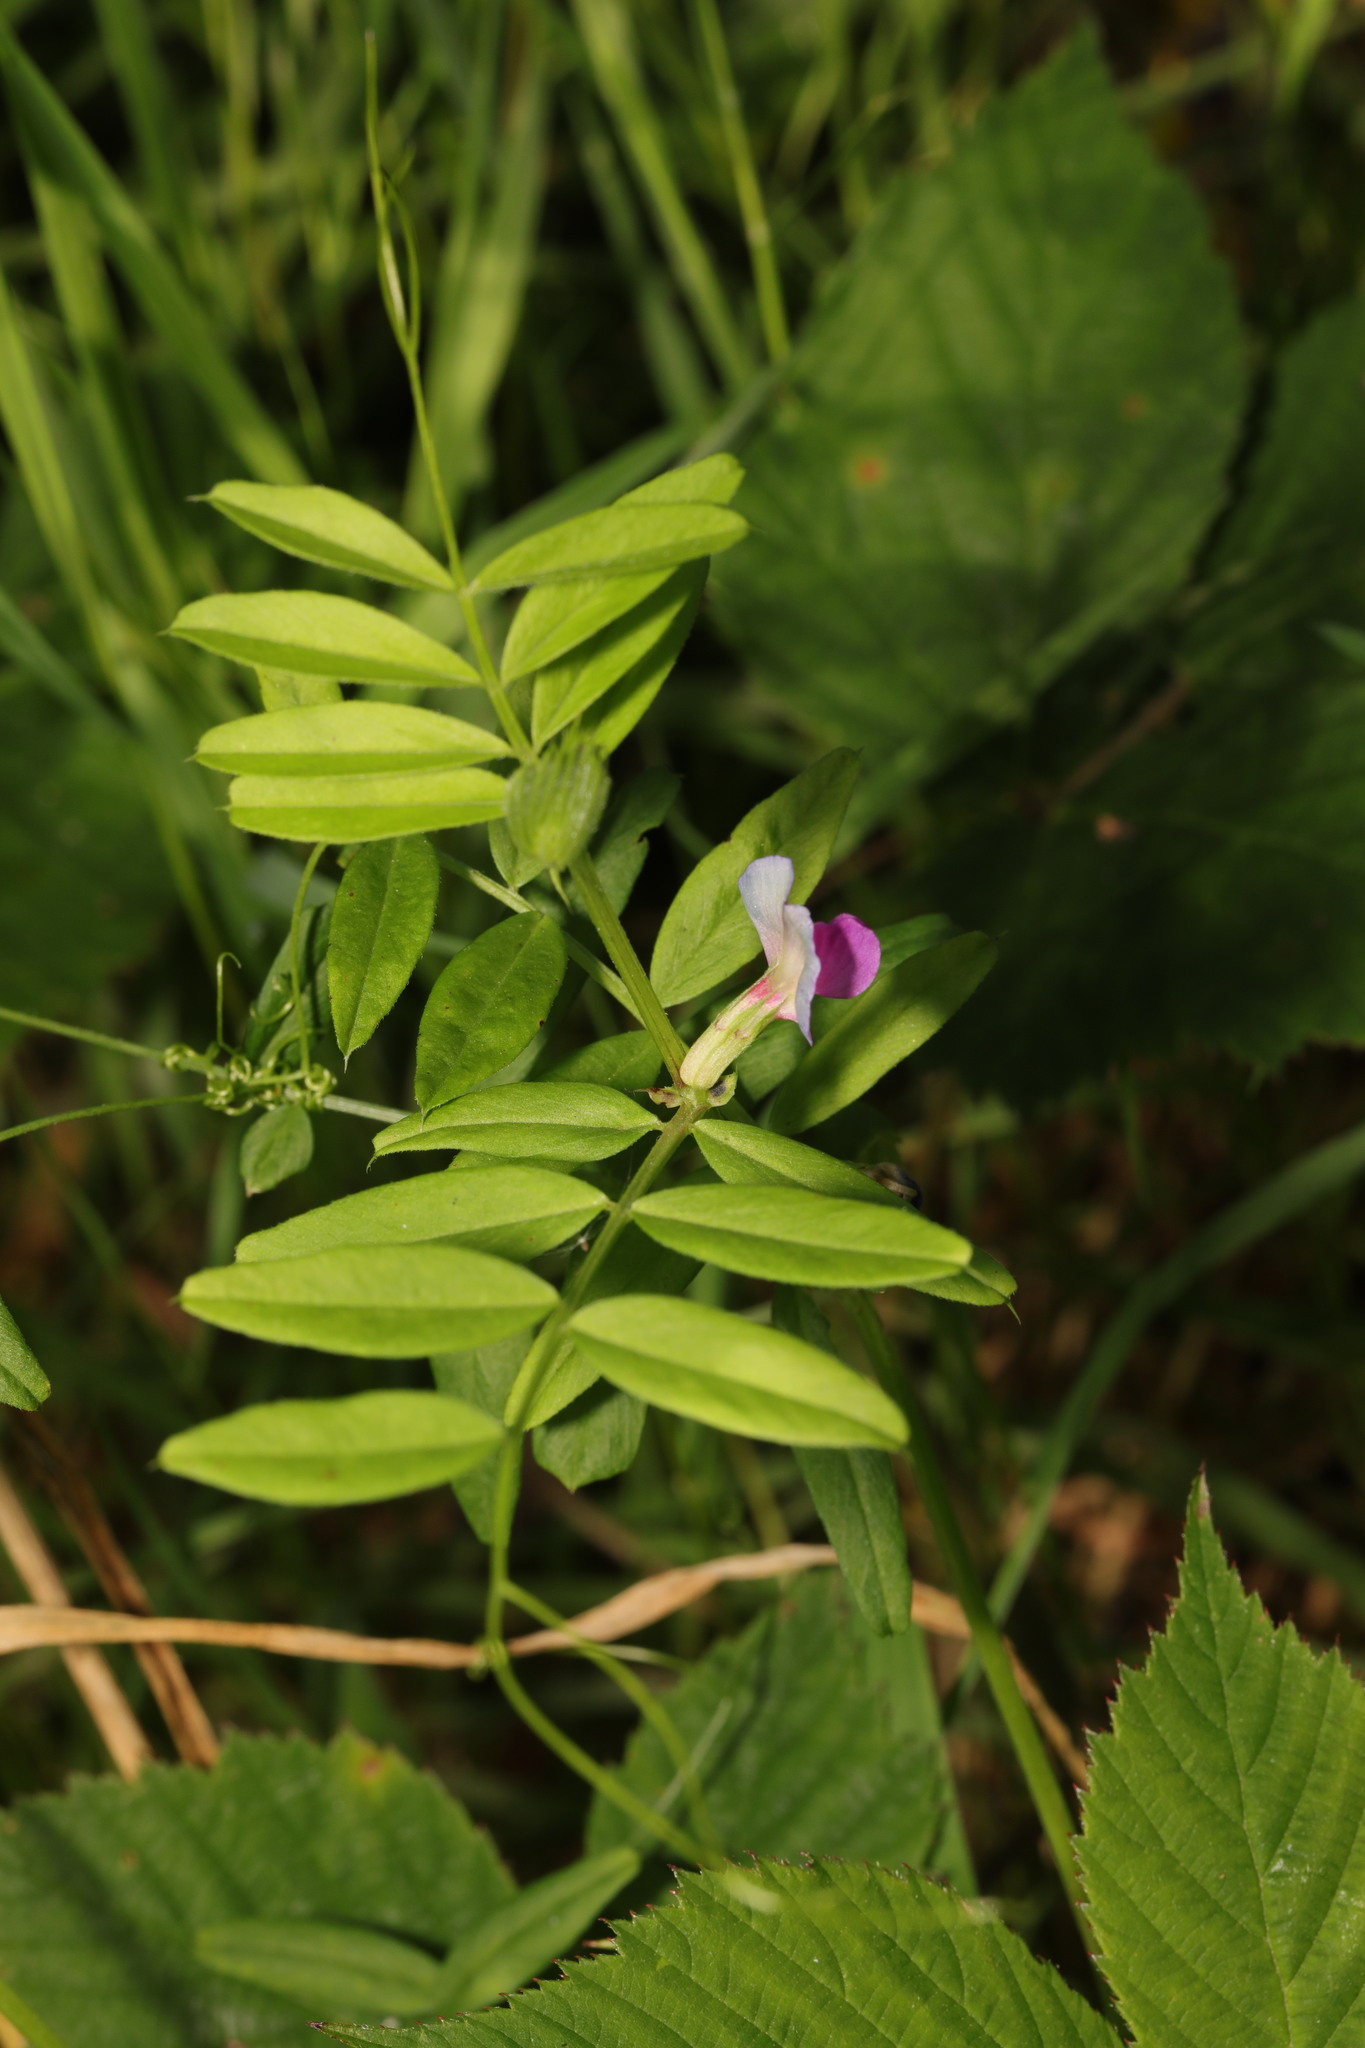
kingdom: Plantae
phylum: Tracheophyta
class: Magnoliopsida
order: Fabales
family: Fabaceae
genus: Vicia
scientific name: Vicia sativa
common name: Garden vetch
